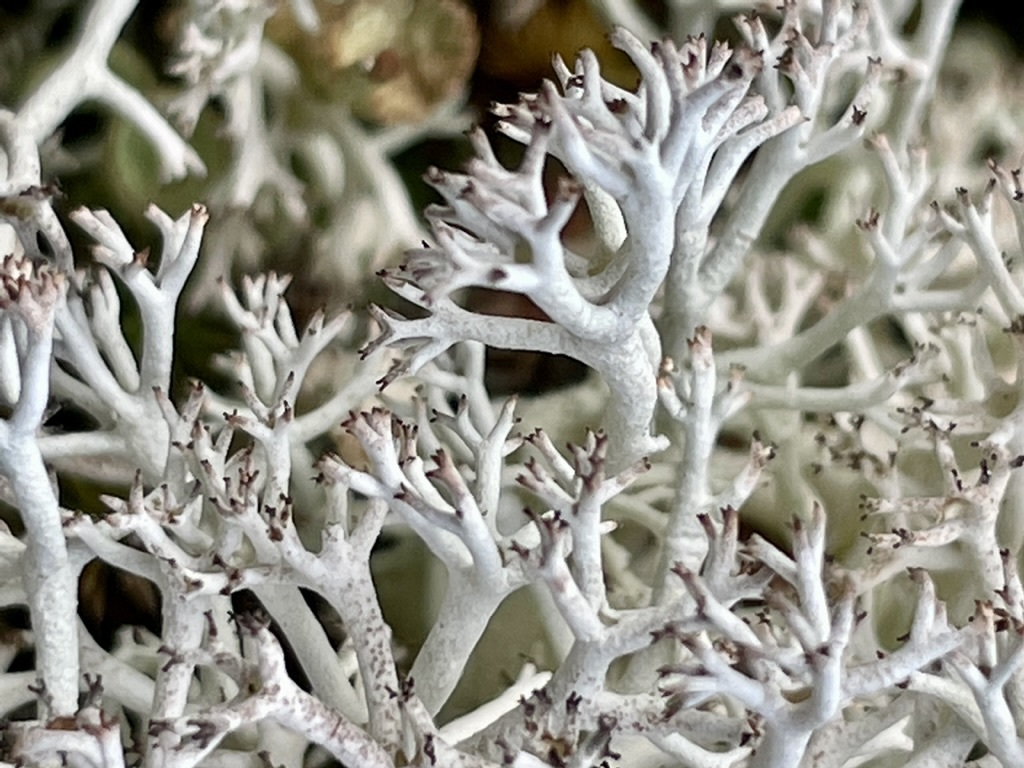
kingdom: Fungi
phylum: Ascomycota
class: Lecanoromycetes
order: Lecanorales
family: Cladoniaceae
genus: Cladonia
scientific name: Cladonia rangiferina
